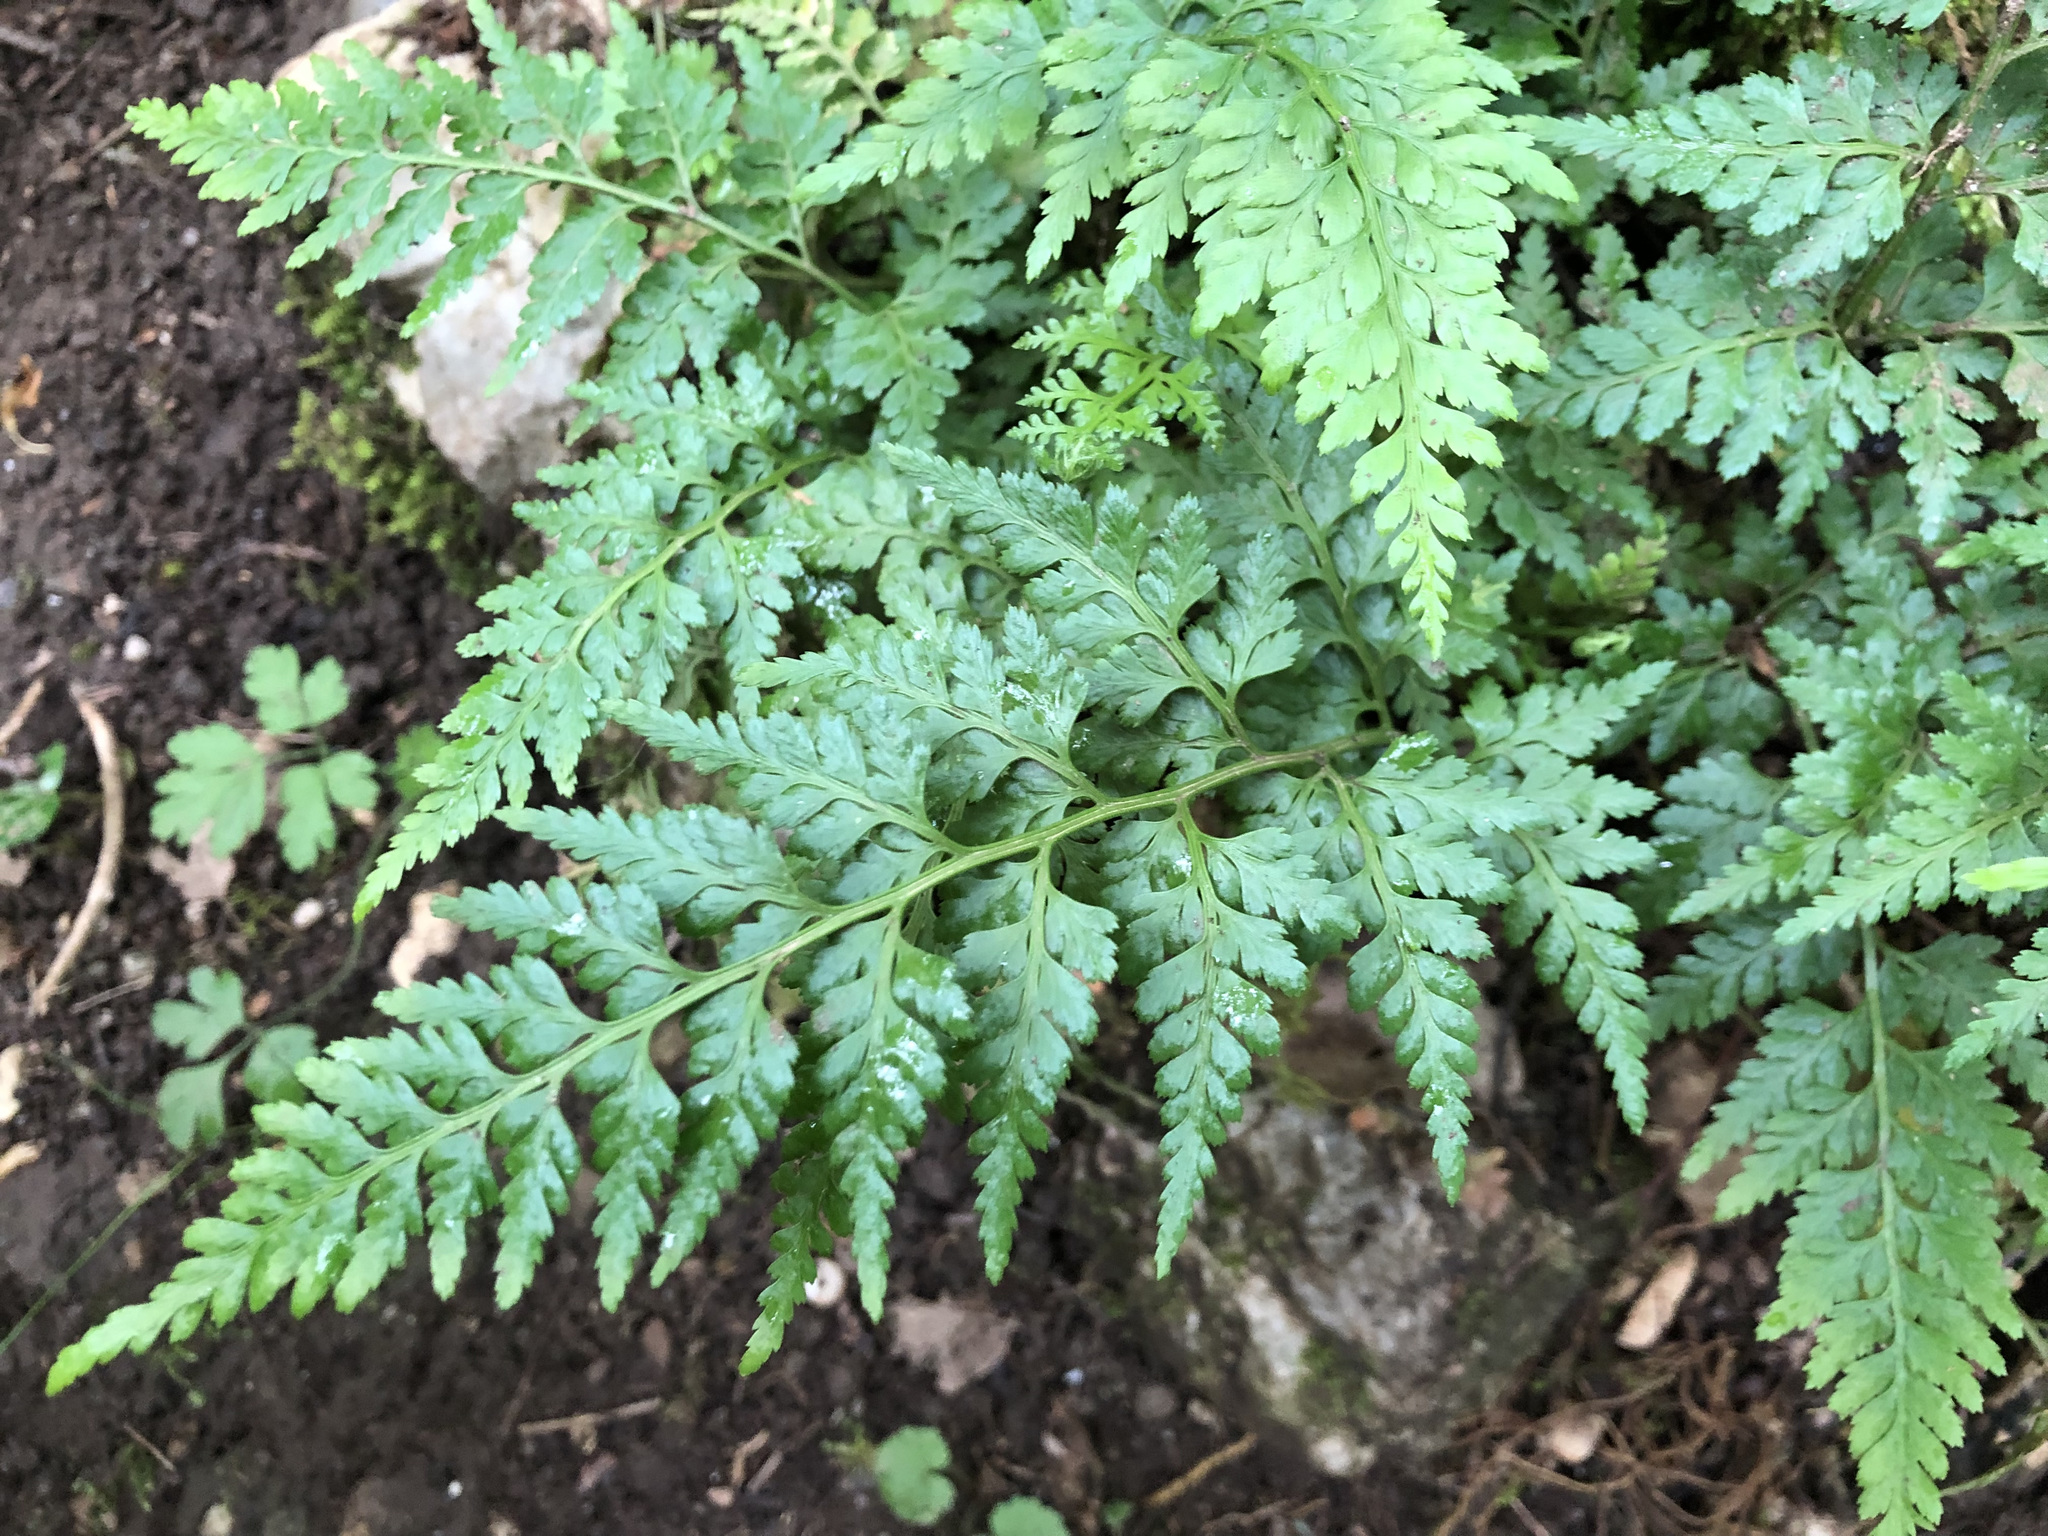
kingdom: Plantae
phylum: Tracheophyta
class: Polypodiopsida
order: Polypodiales
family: Aspleniaceae
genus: Asplenium
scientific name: Asplenium adiantum-nigrum
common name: Black spleenwort
